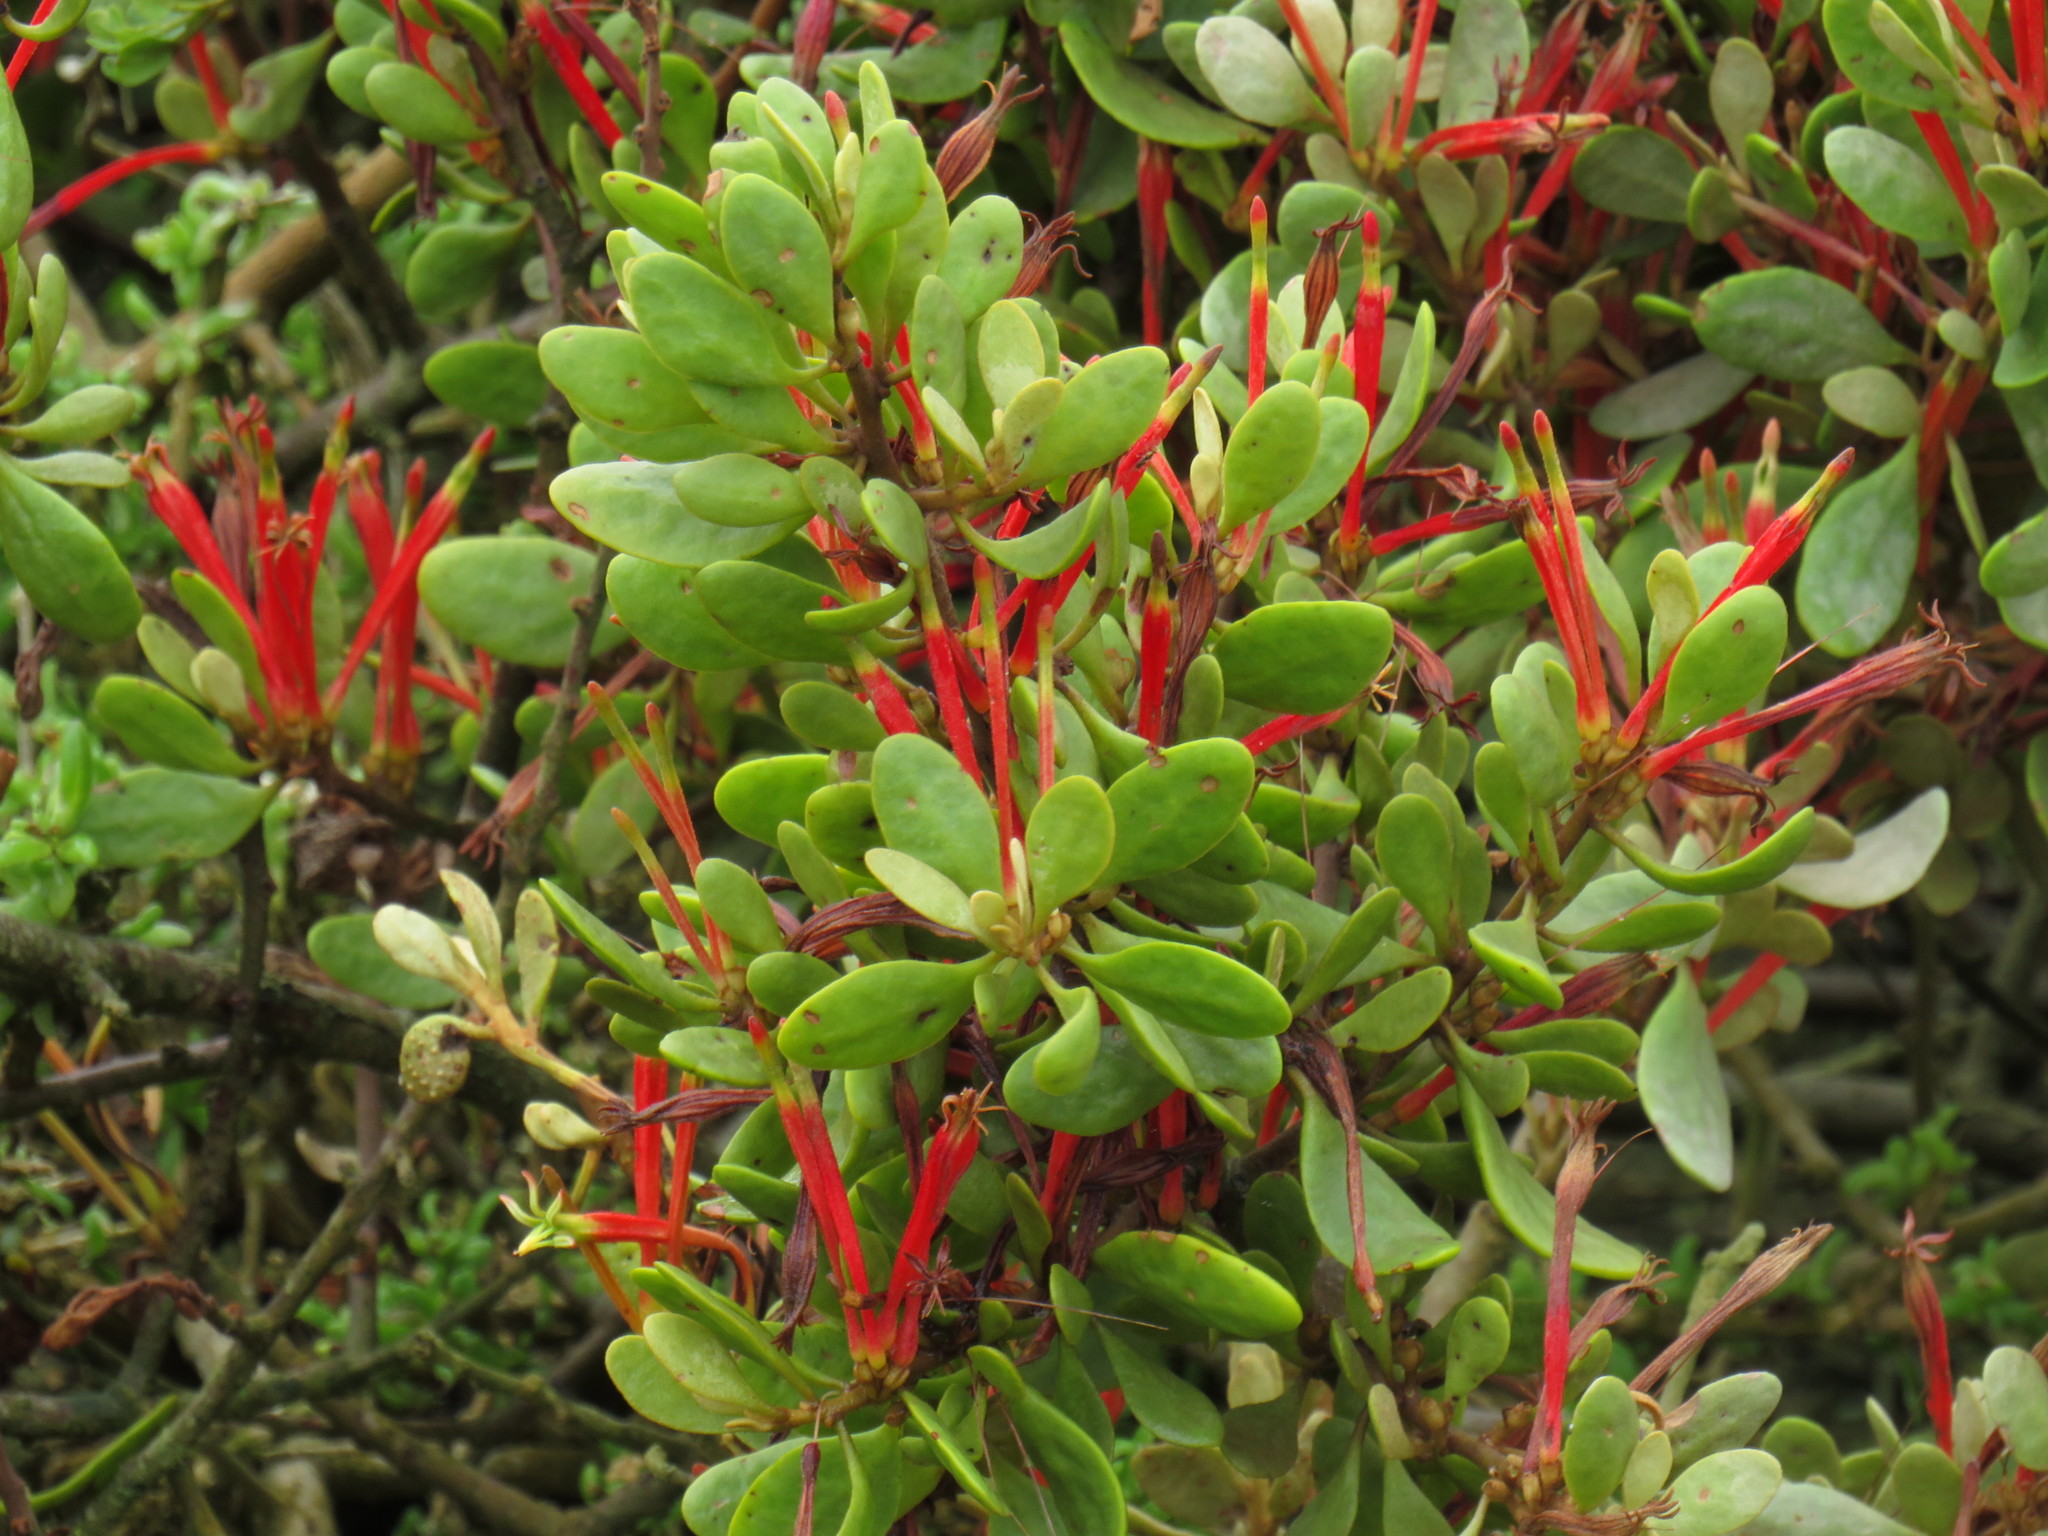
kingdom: Plantae
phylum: Tracheophyta
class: Magnoliopsida
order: Santalales
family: Loranthaceae
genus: Septulina
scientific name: Septulina glauca
